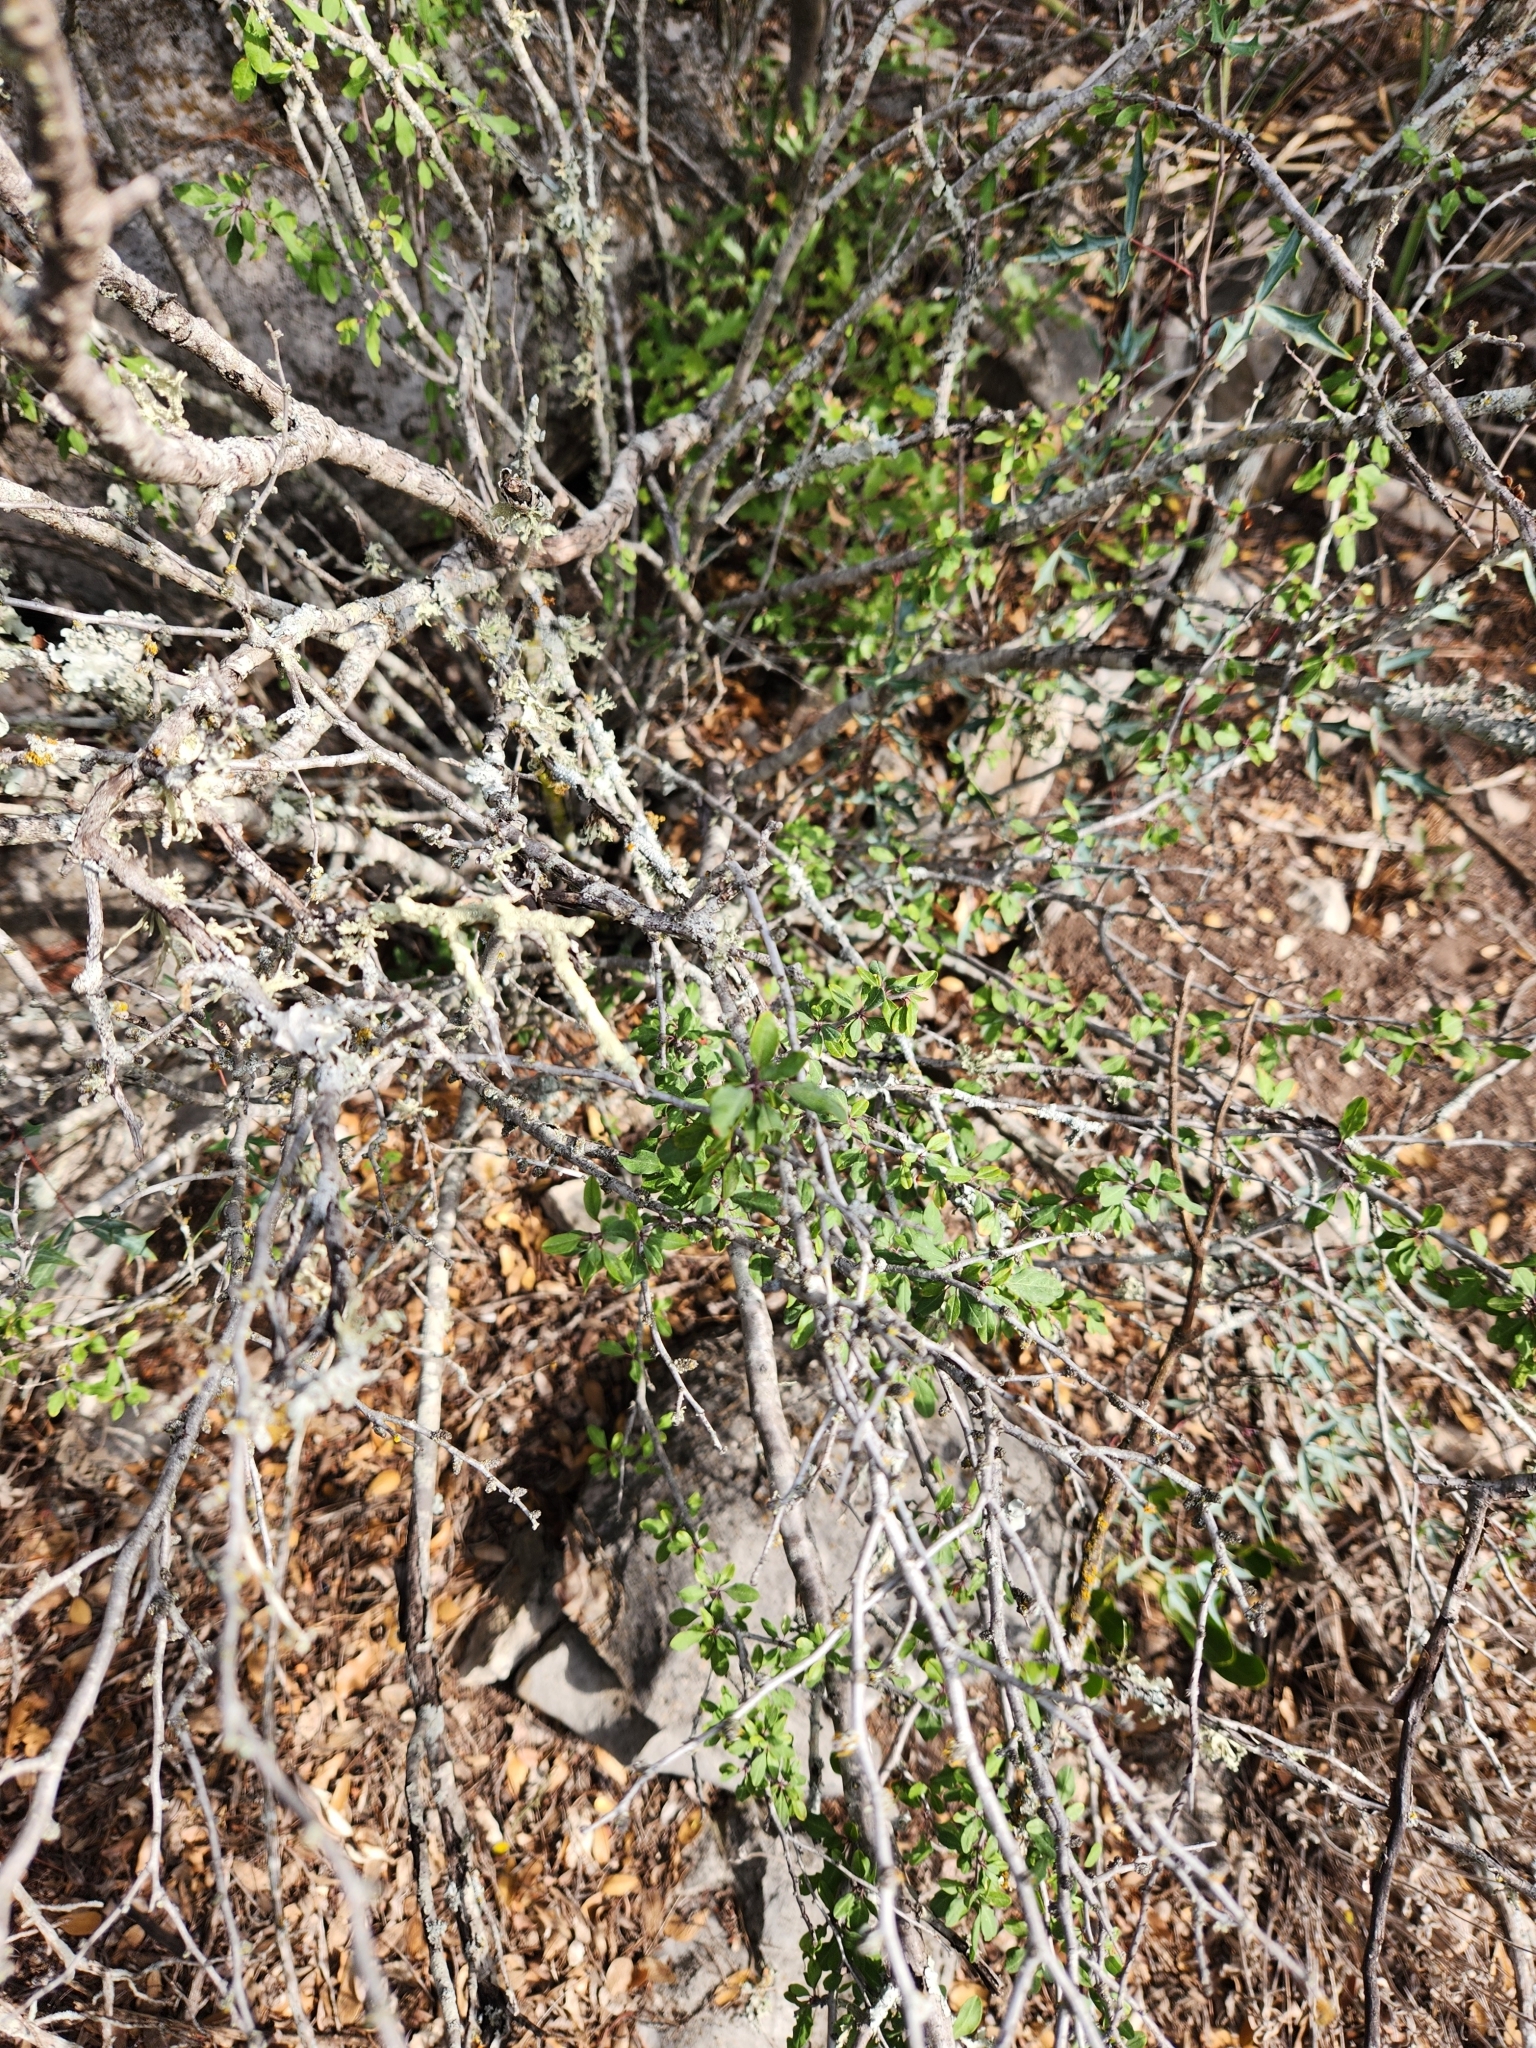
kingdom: Plantae
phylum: Tracheophyta
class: Magnoliopsida
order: Lamiales
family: Oleaceae
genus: Forestiera
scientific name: Forestiera pubescens
